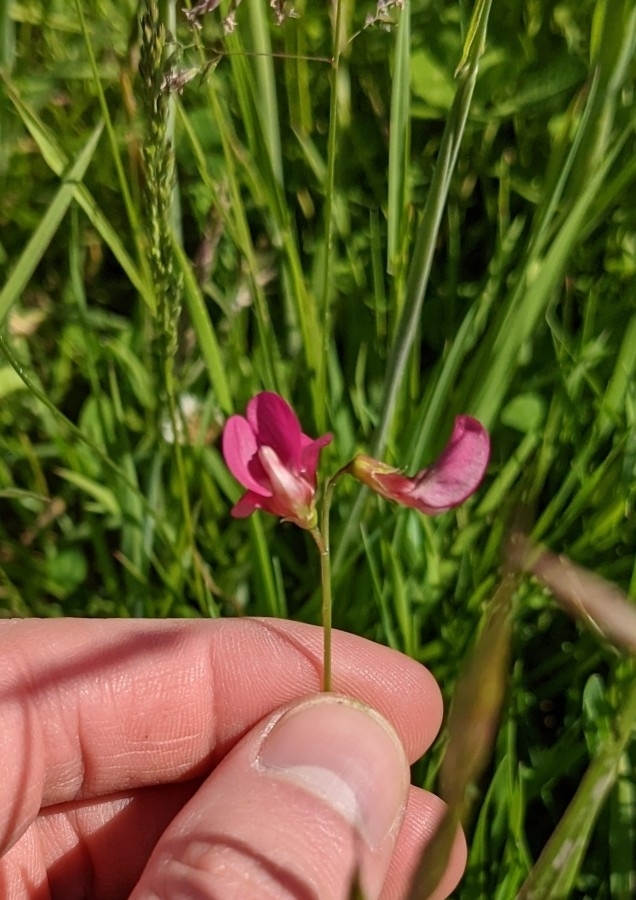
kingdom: Plantae
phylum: Tracheophyta
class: Magnoliopsida
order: Fabales
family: Fabaceae
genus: Lathyrus
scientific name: Lathyrus nissolia
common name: Grass vetchling
